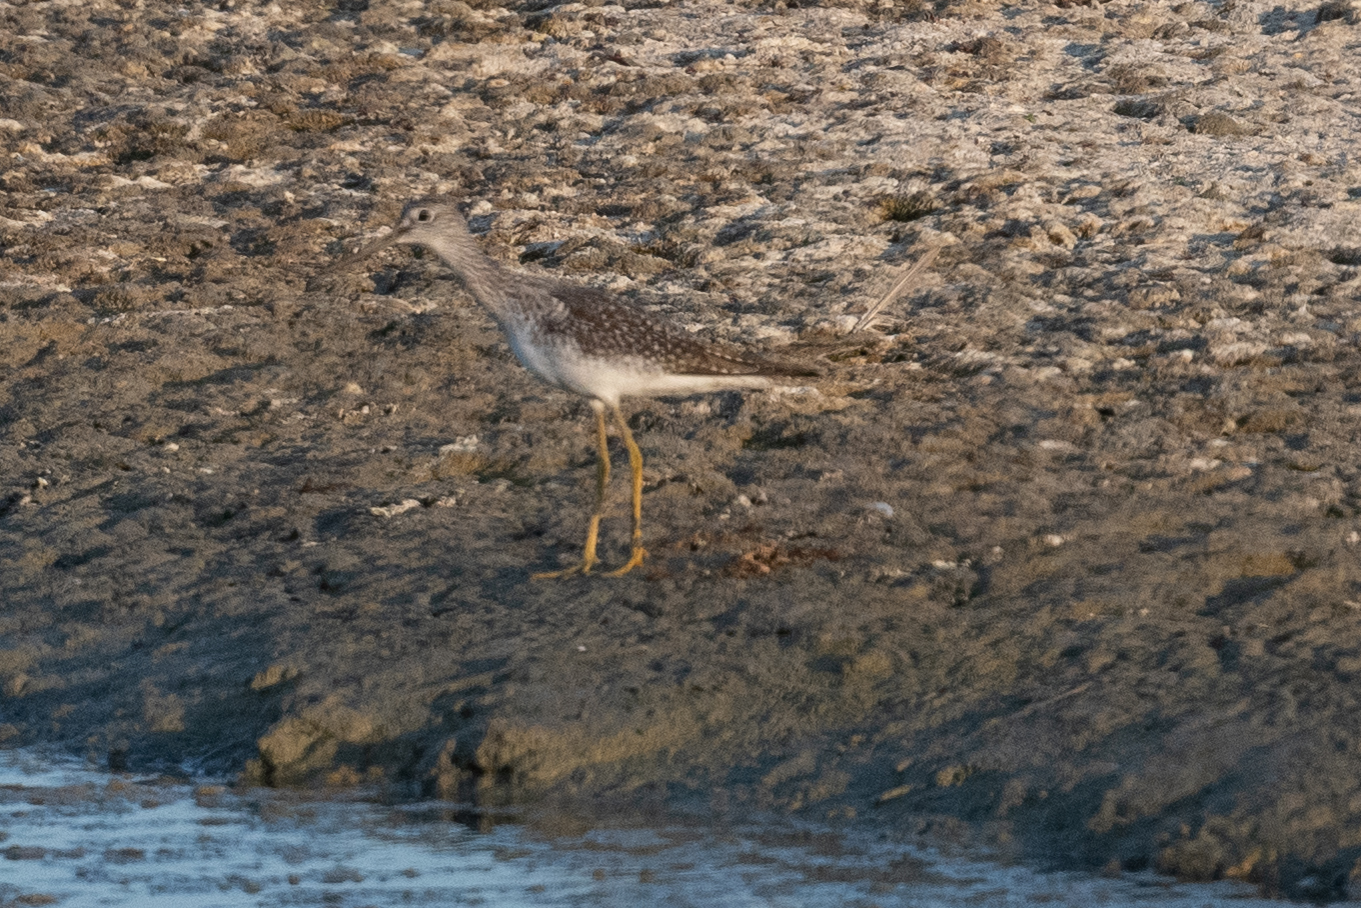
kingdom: Animalia
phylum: Chordata
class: Aves
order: Charadriiformes
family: Scolopacidae
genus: Tringa
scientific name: Tringa melanoleuca
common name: Greater yellowlegs
